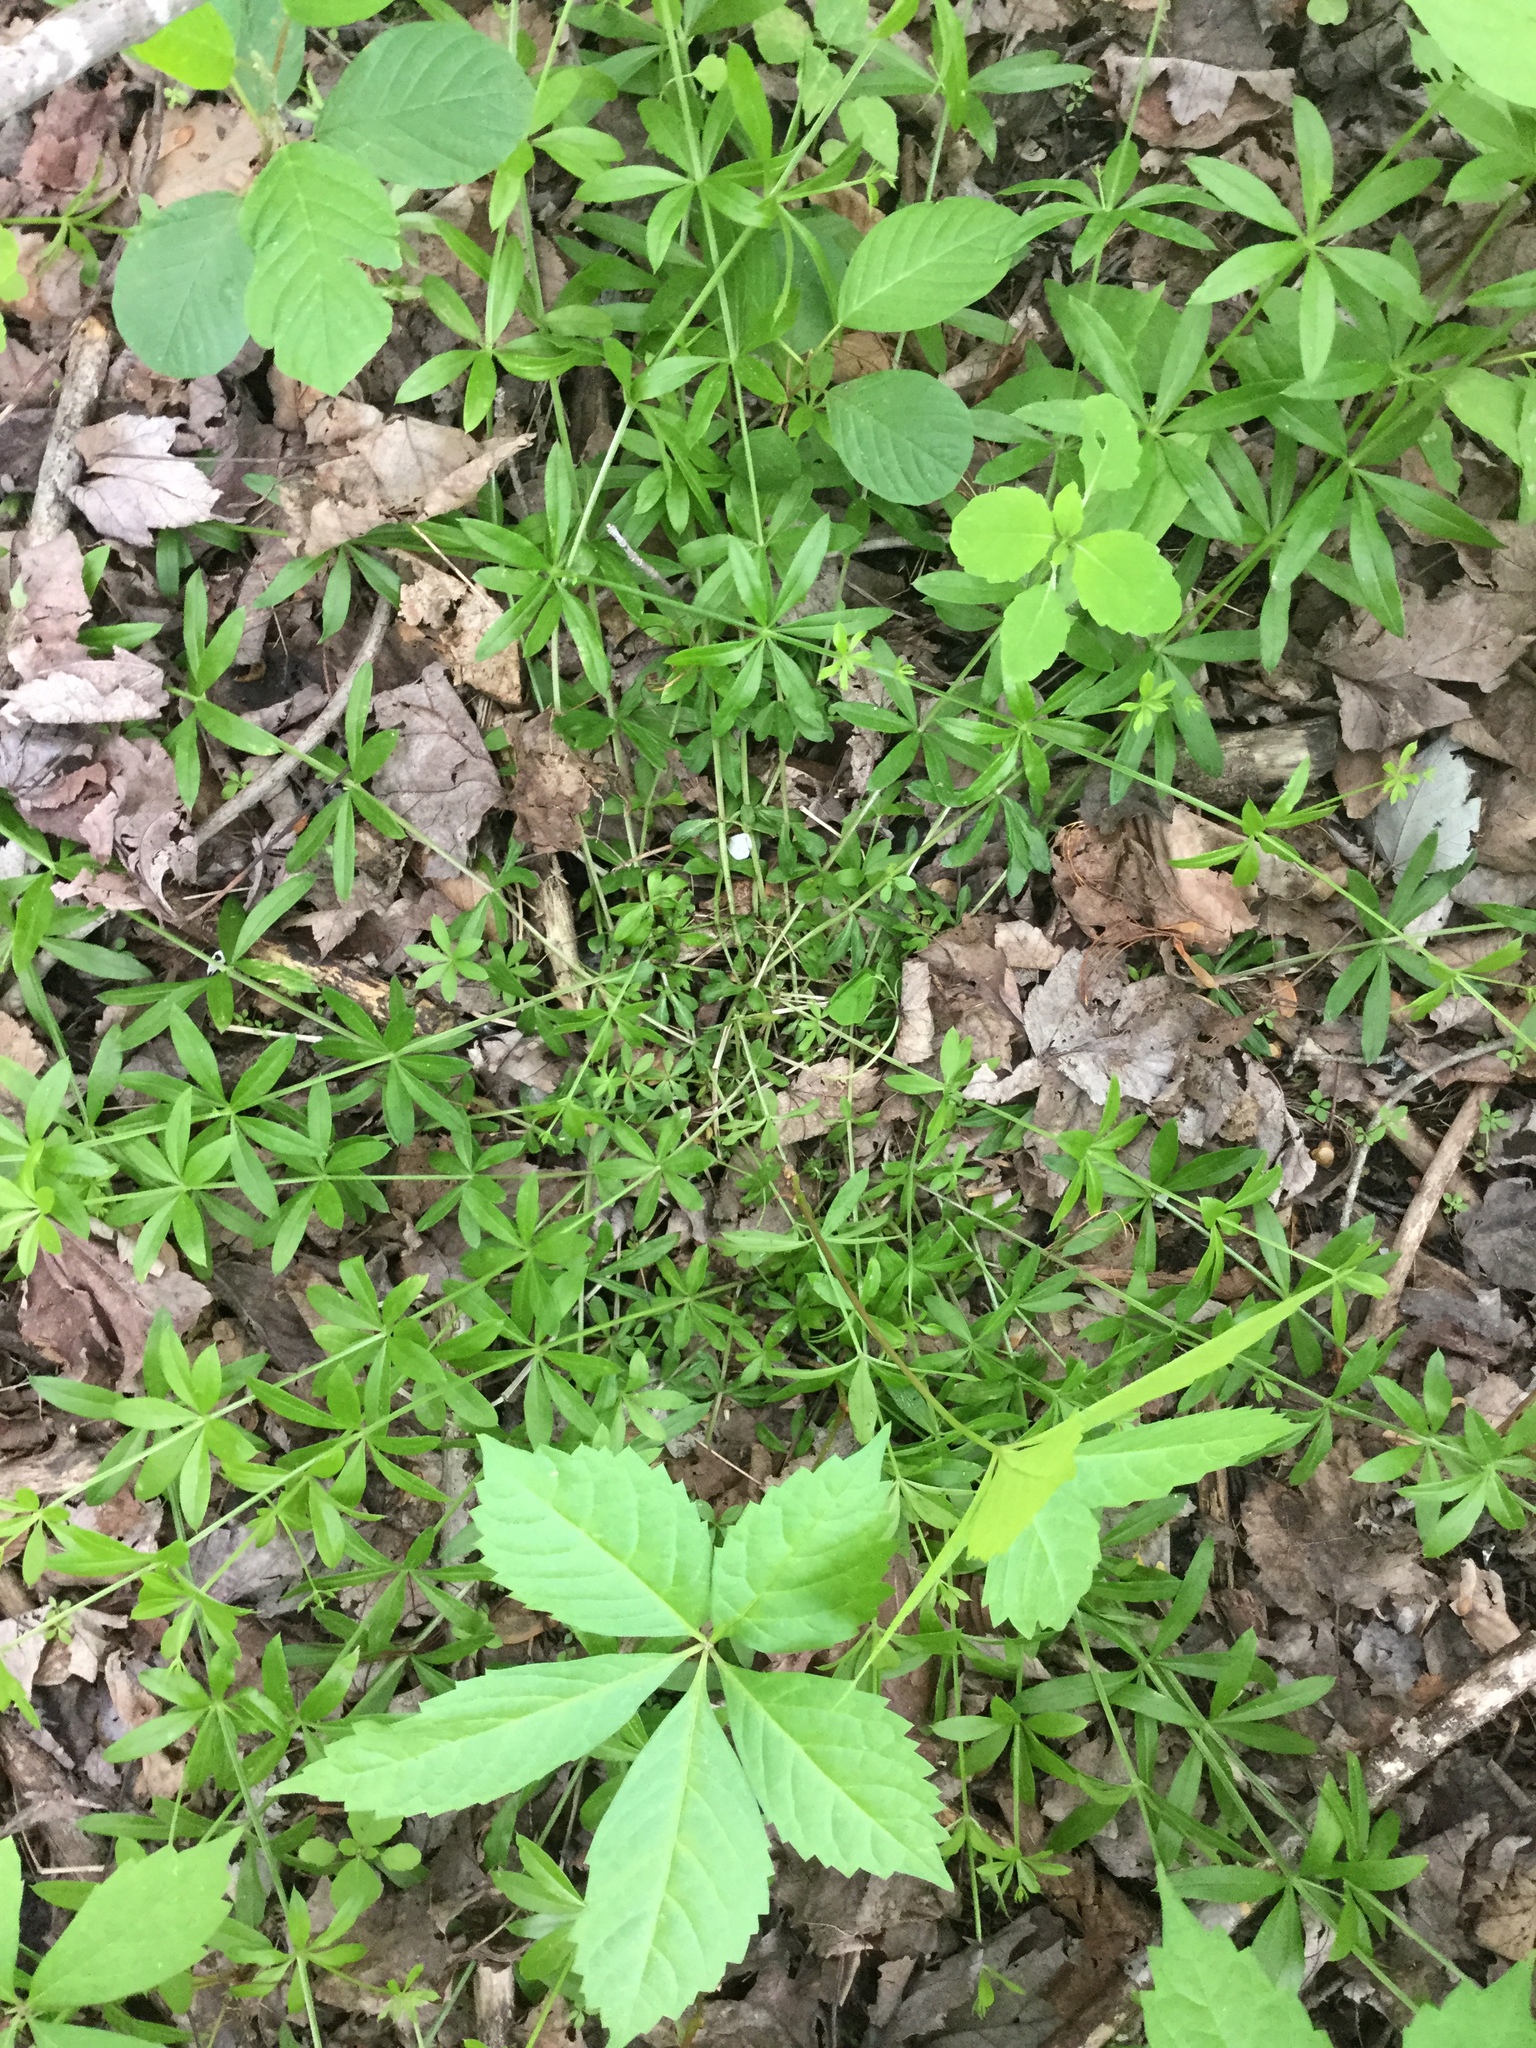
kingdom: Plantae
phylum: Tracheophyta
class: Magnoliopsida
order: Gentianales
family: Rubiaceae
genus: Galium
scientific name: Galium triflorum
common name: Fragrant bedstraw
